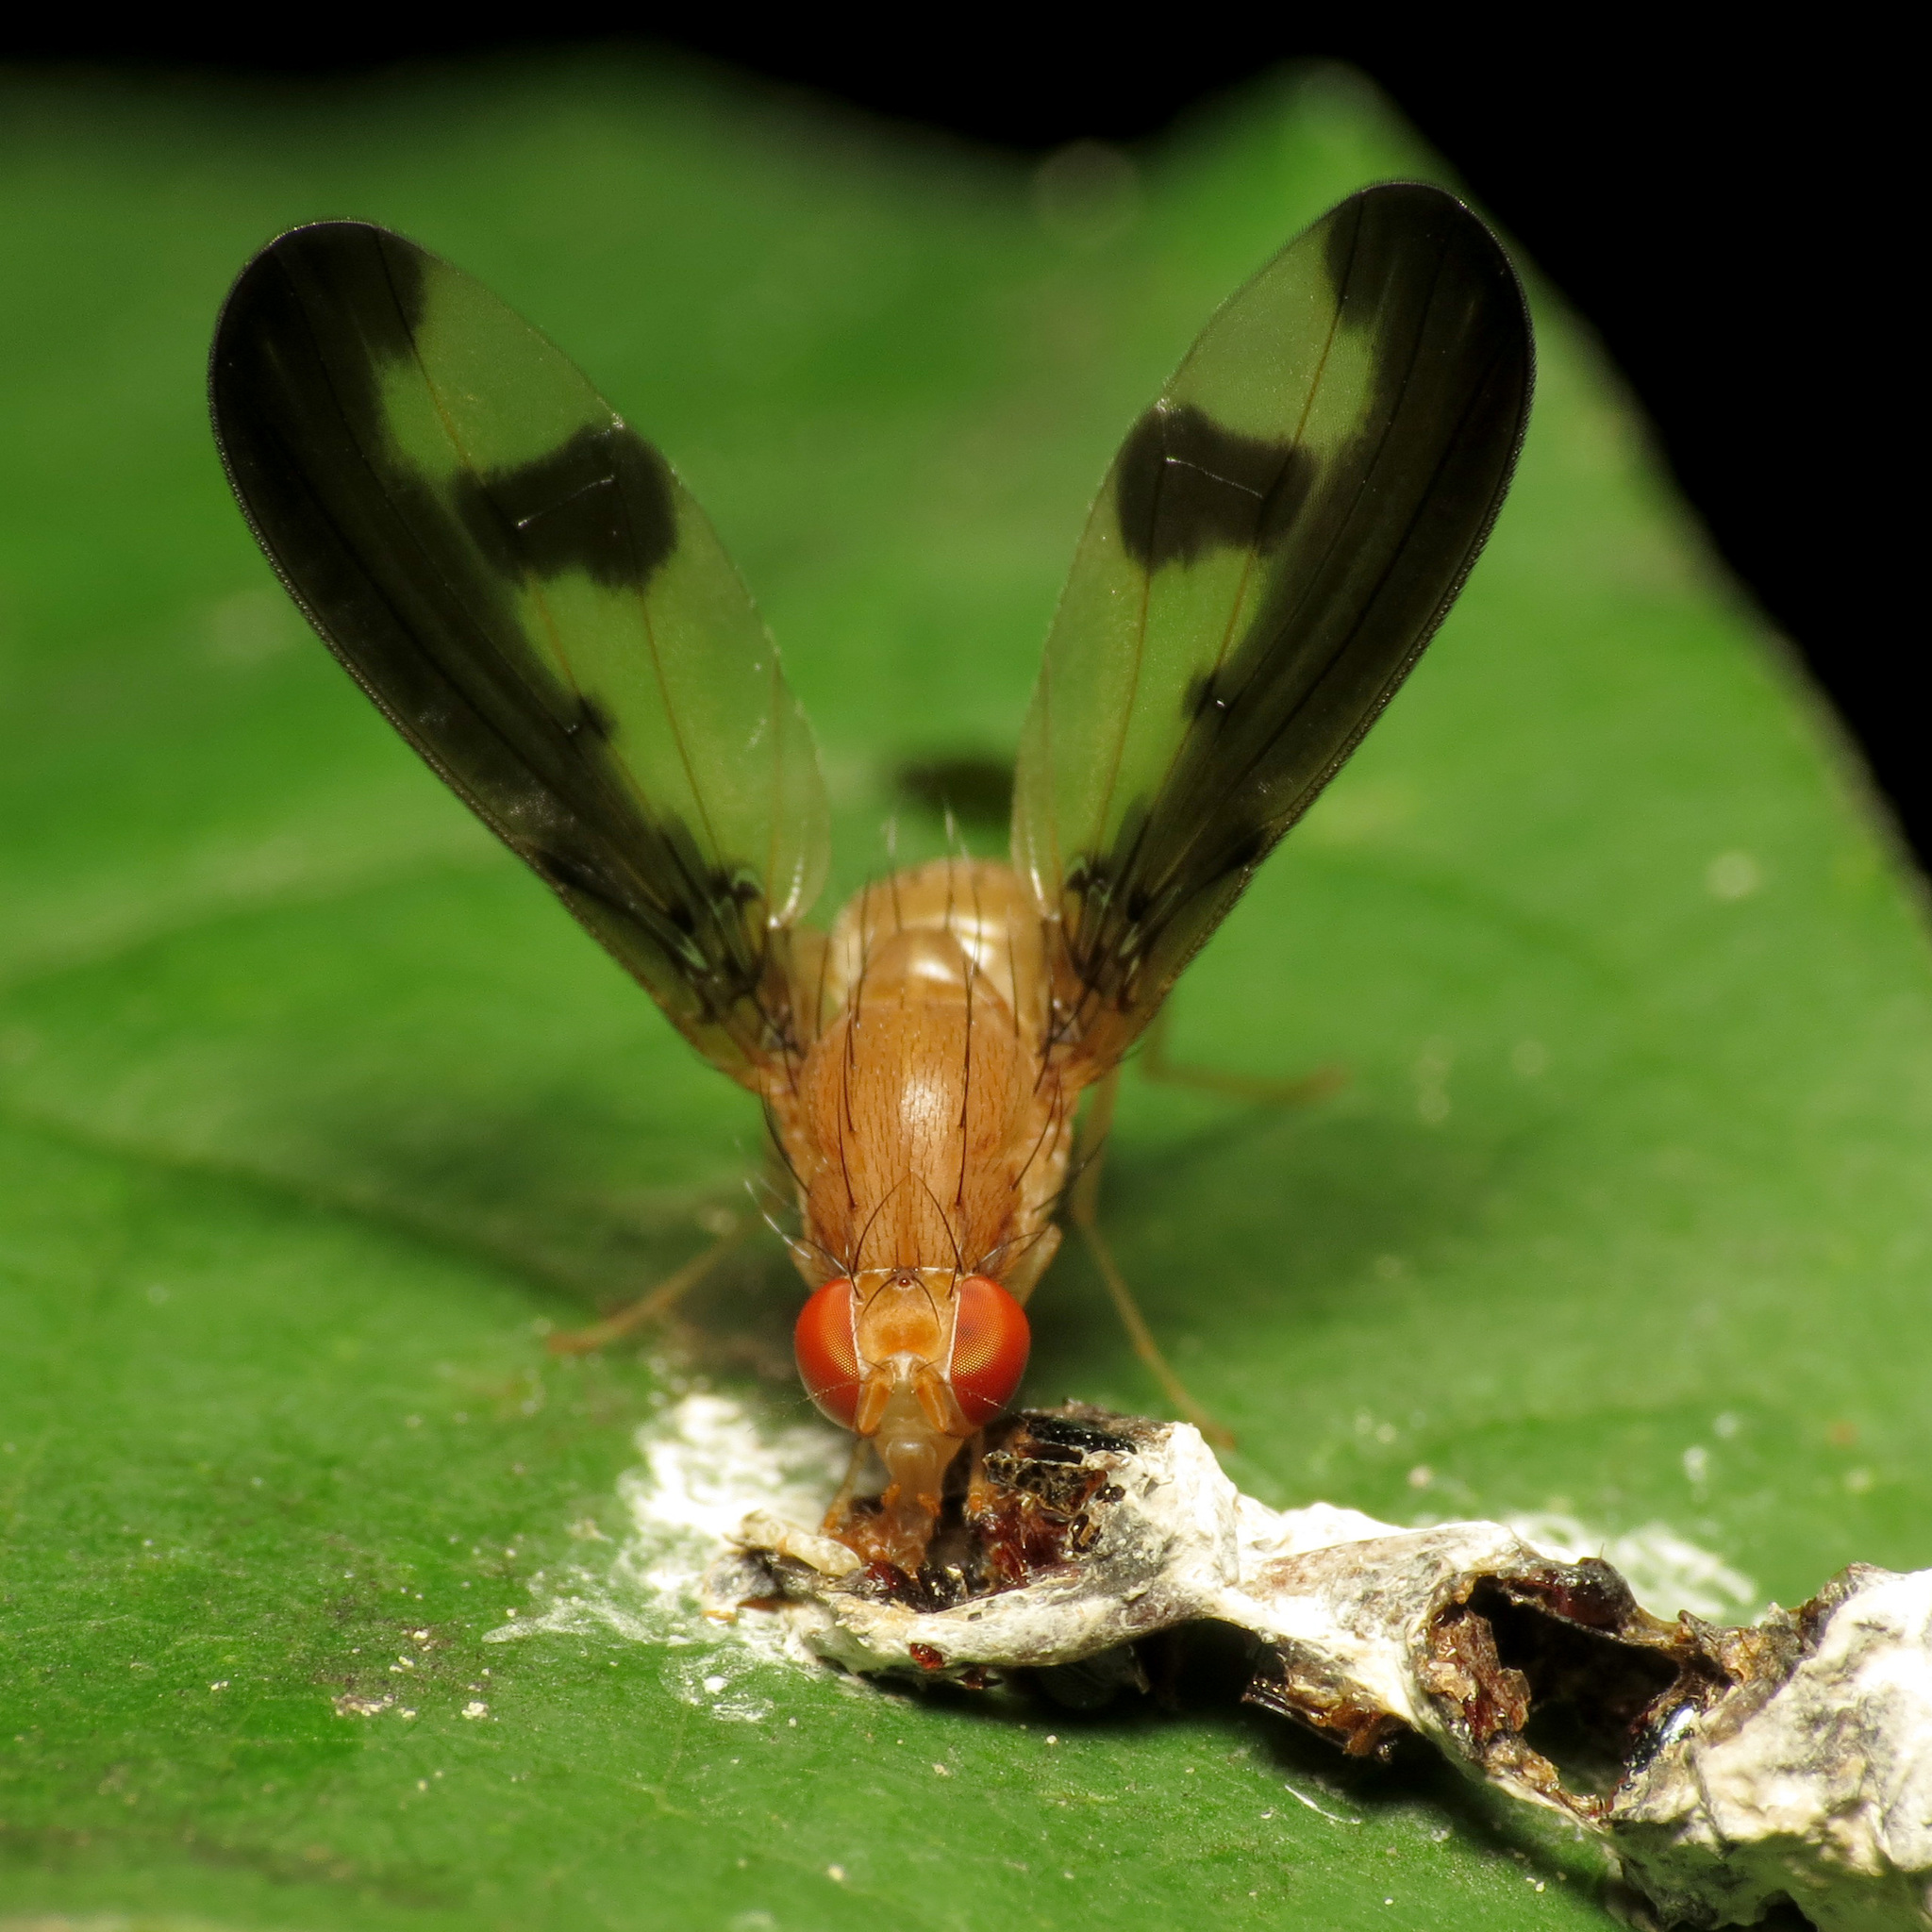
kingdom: Animalia
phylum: Arthropoda
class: Insecta
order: Diptera
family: Pallopteridae
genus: Toxonevra
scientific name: Toxonevra superba
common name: Antlered flutter fly
